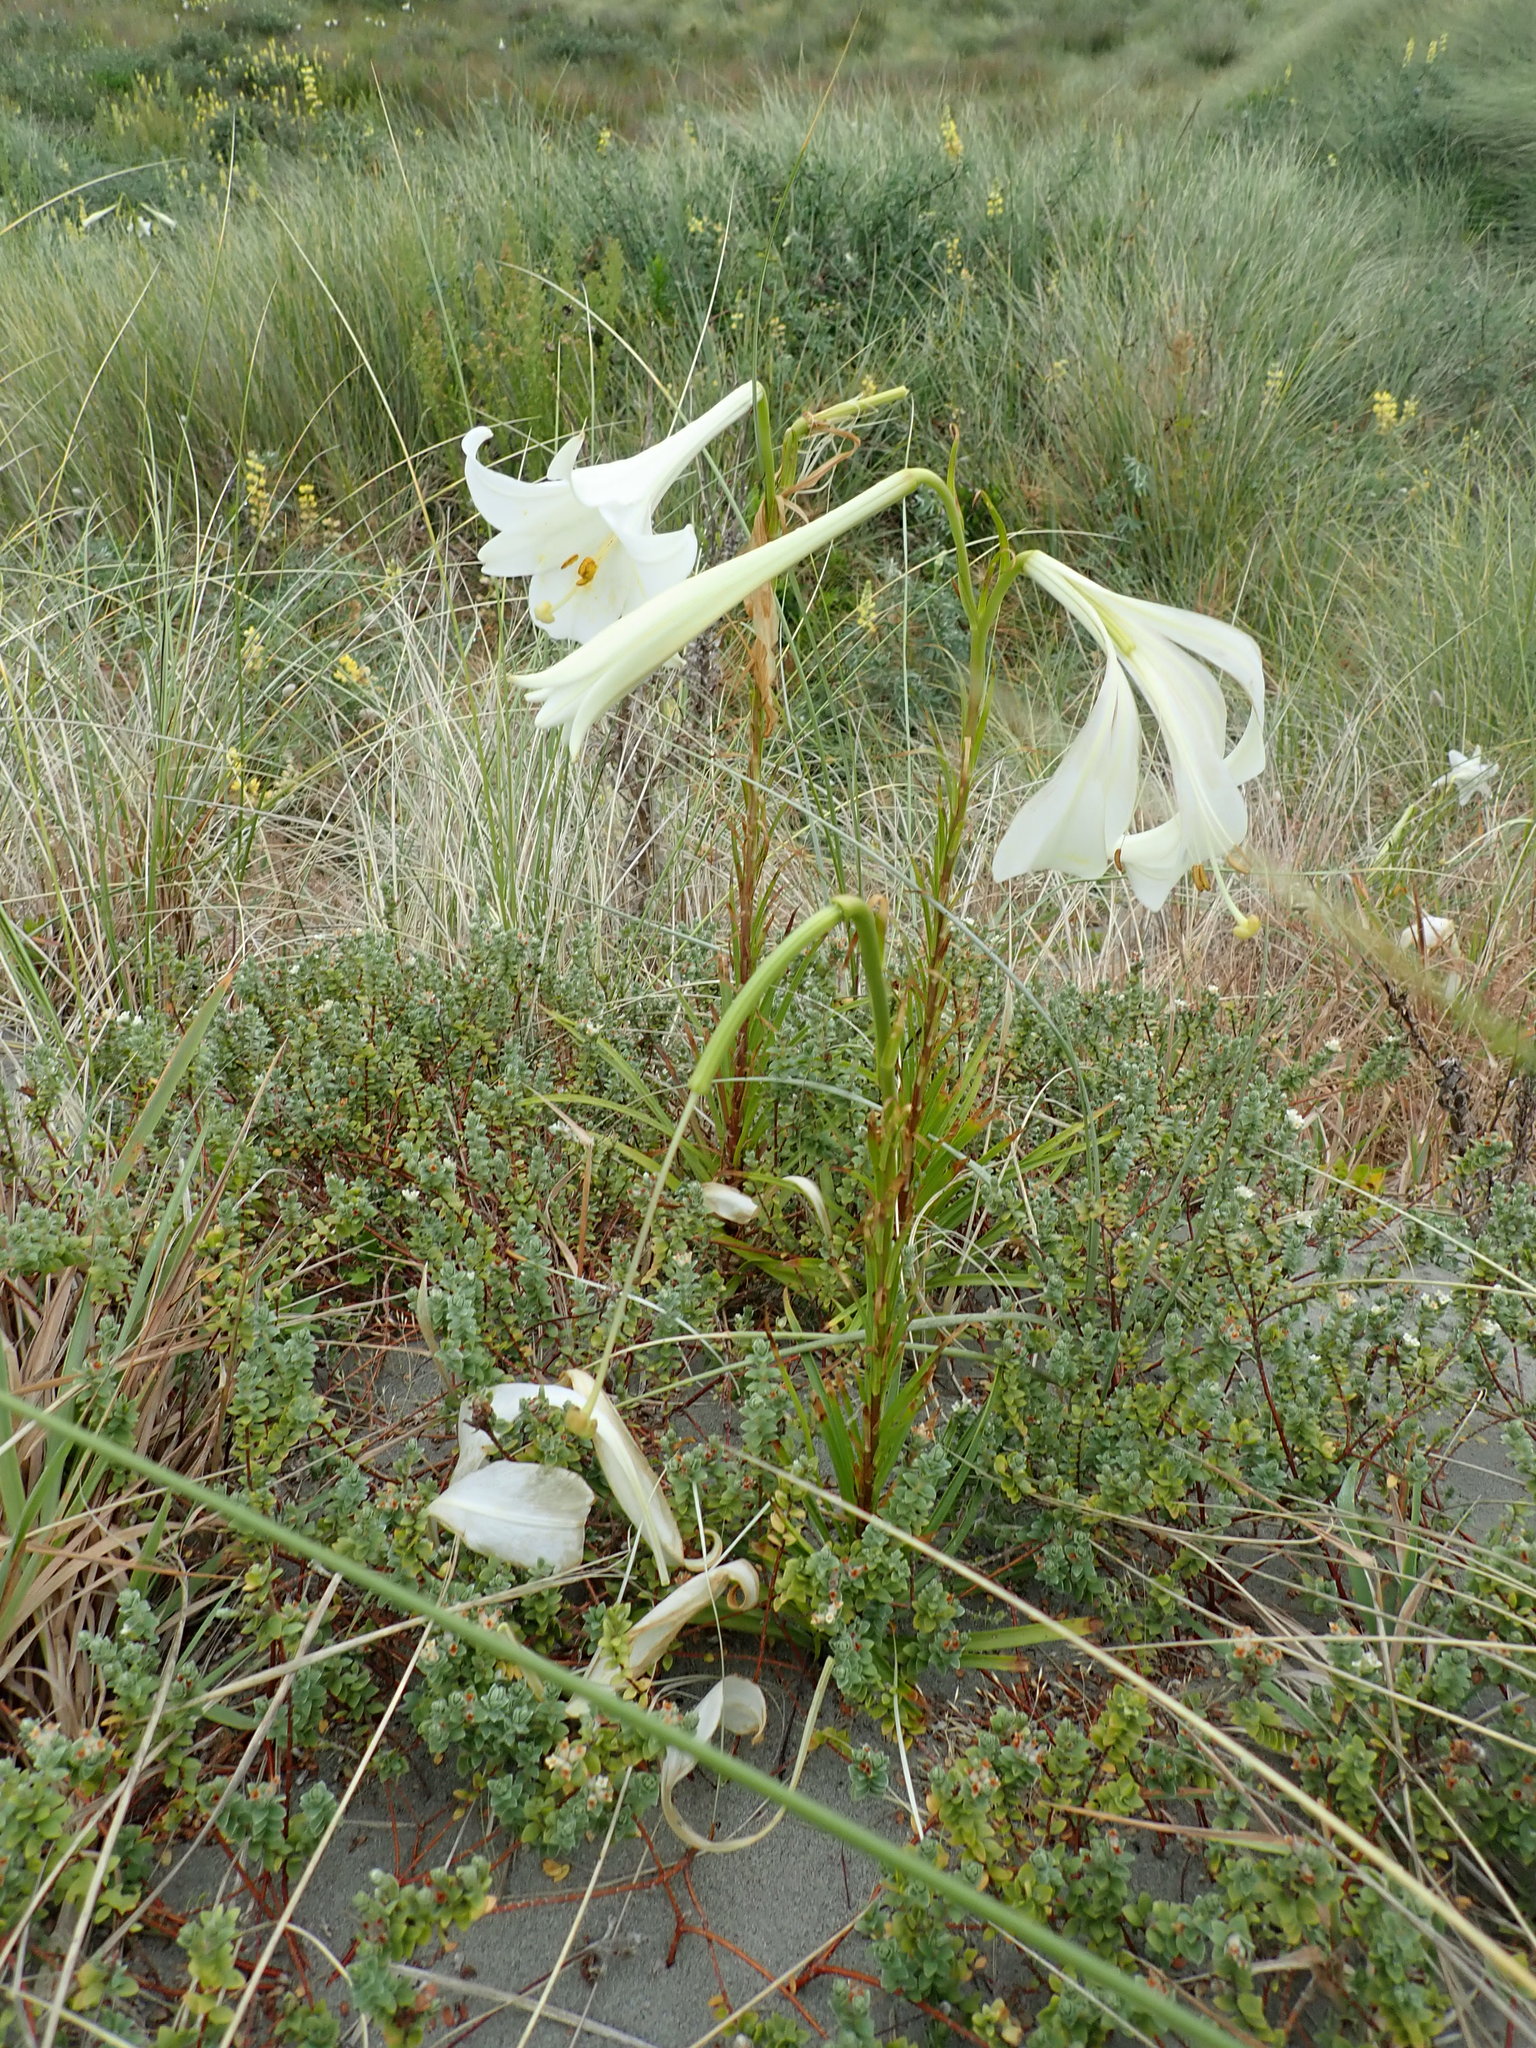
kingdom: Plantae
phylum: Tracheophyta
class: Liliopsida
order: Liliales
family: Liliaceae
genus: Lilium
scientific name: Lilium formosanum
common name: Formosa lily
